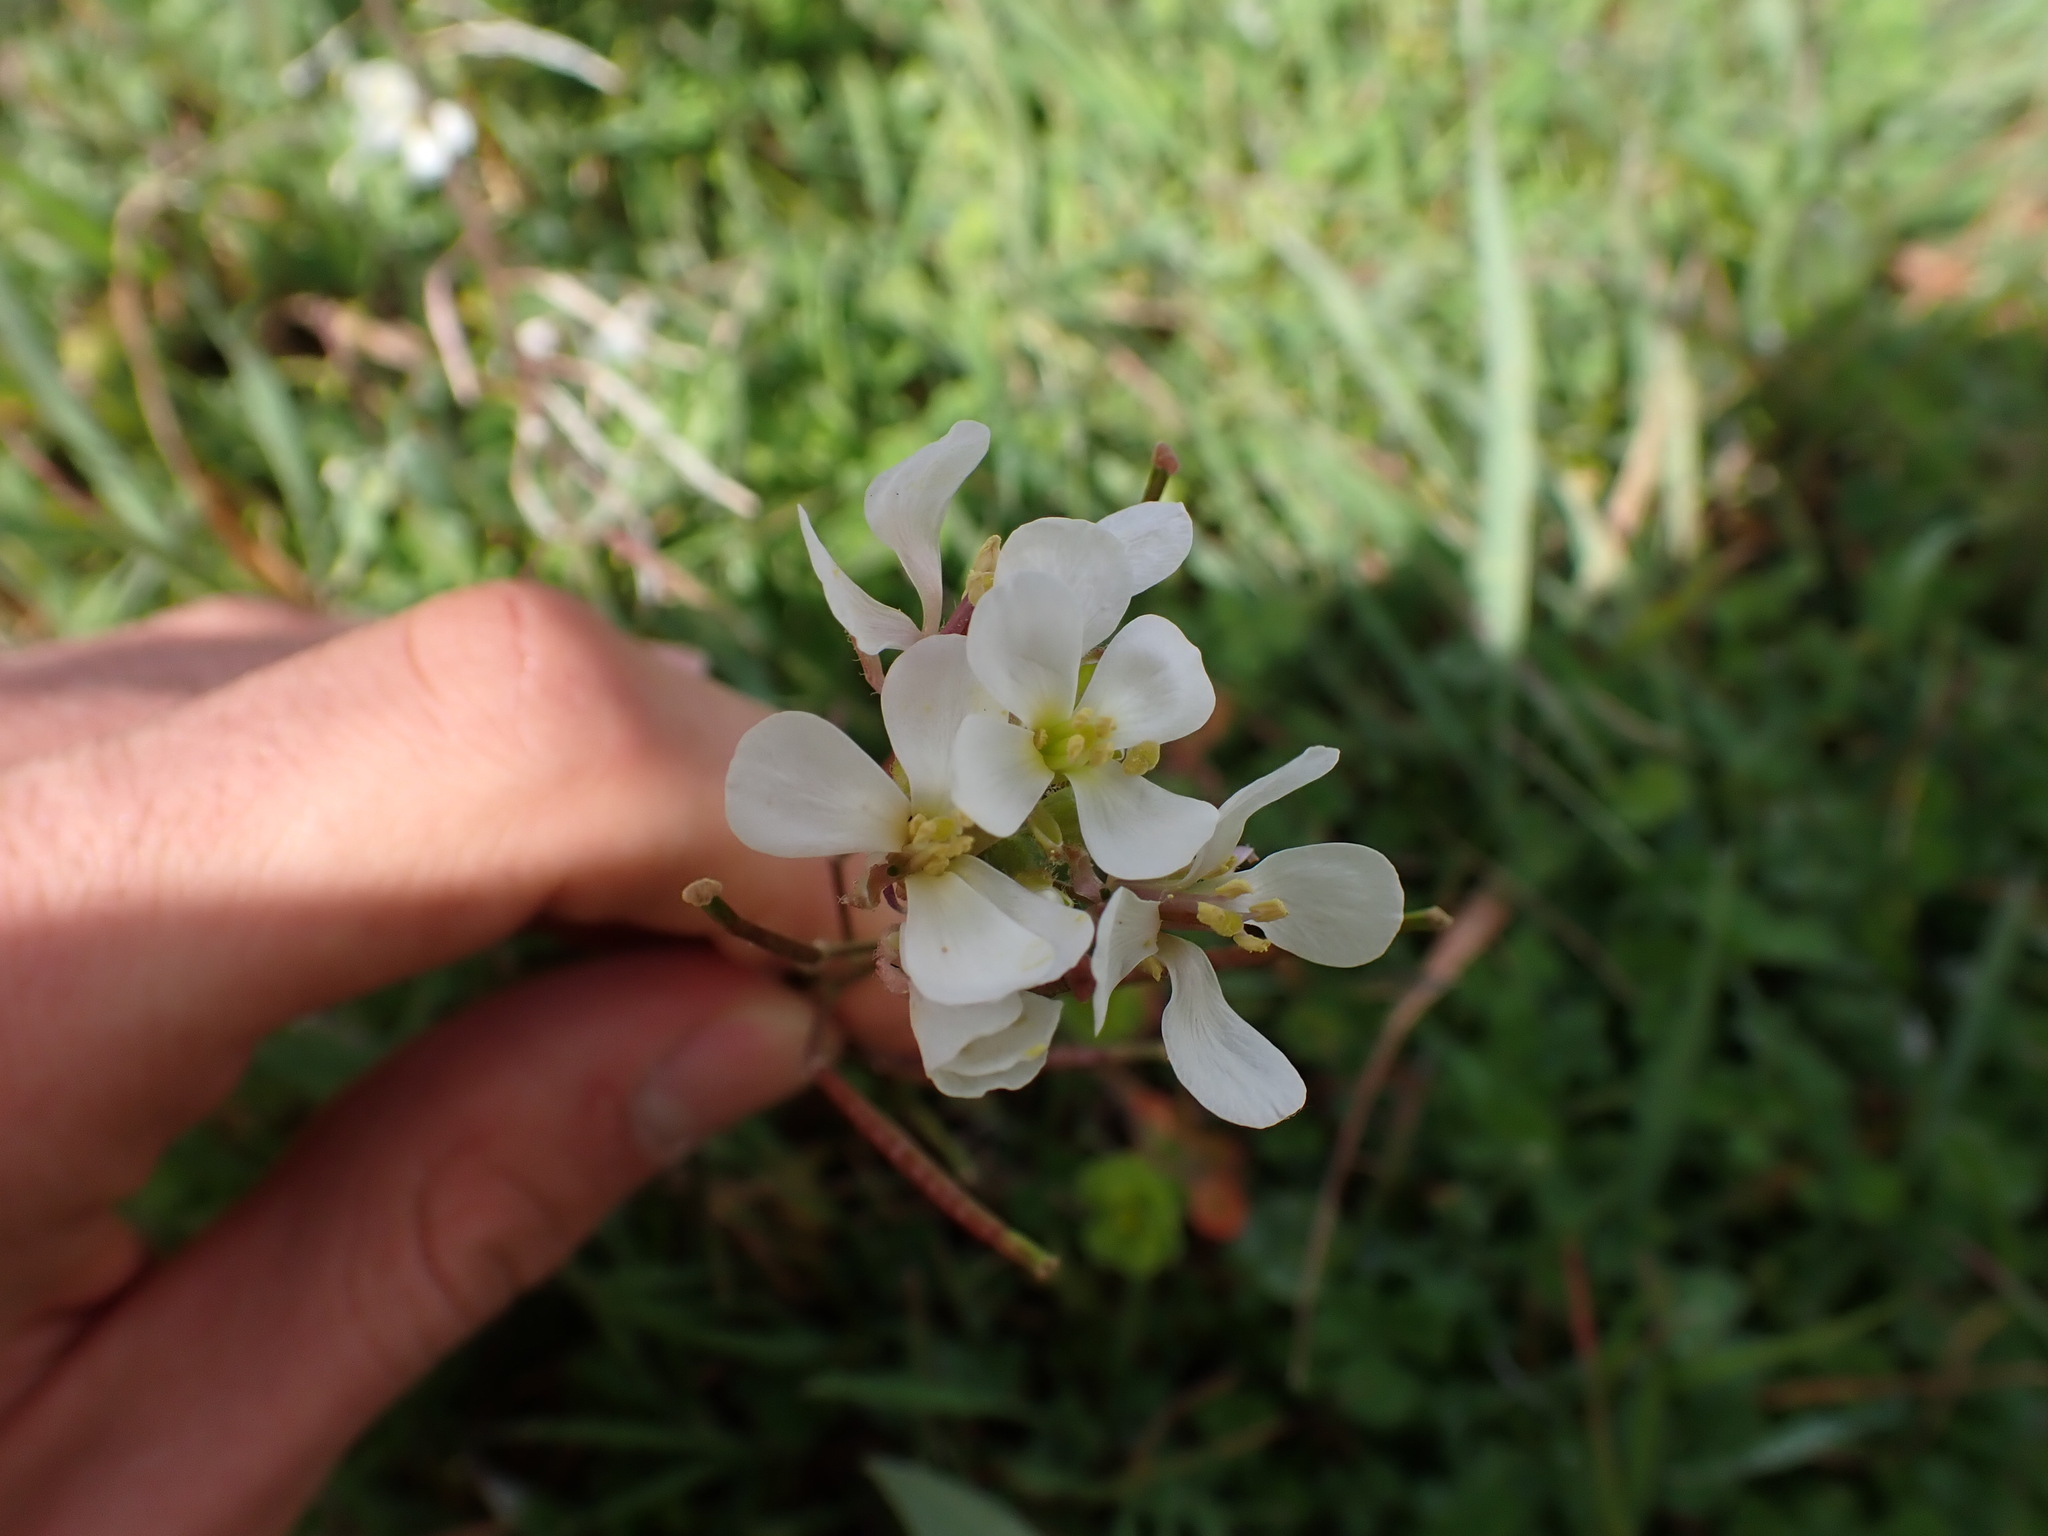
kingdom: Plantae
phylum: Tracheophyta
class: Magnoliopsida
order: Brassicales
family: Brassicaceae
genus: Diplotaxis
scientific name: Diplotaxis erucoides
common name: White rocket
